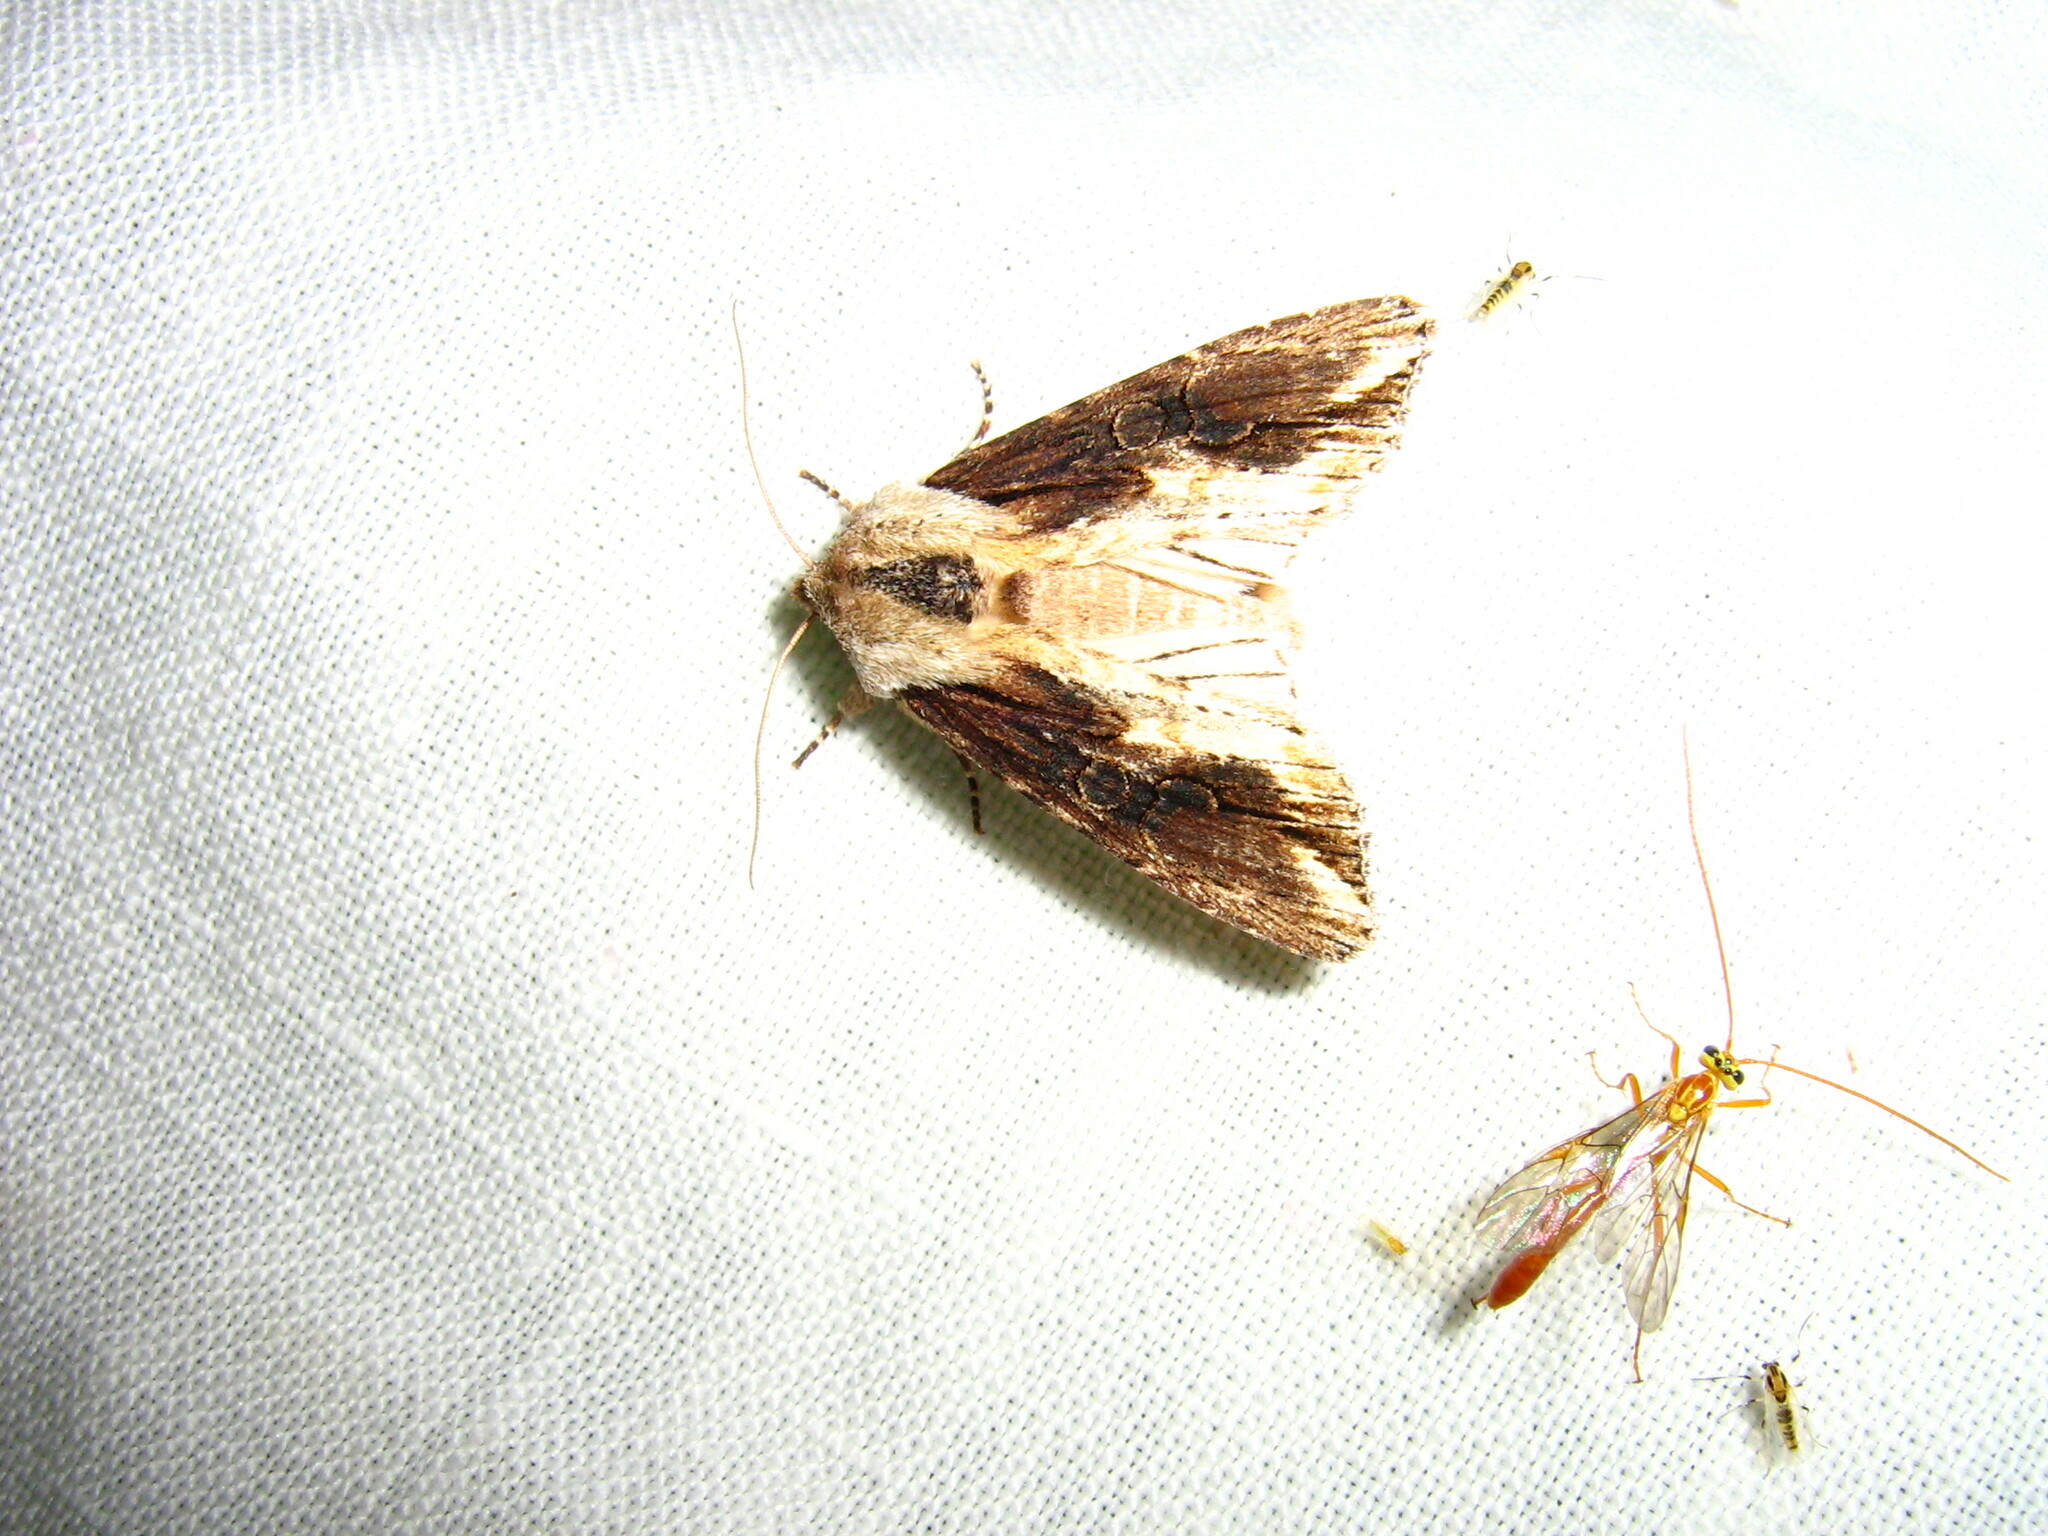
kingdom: Animalia
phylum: Arthropoda
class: Insecta
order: Lepidoptera
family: Noctuidae
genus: Egira
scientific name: Egira conspicillaris
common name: Silver cloud
